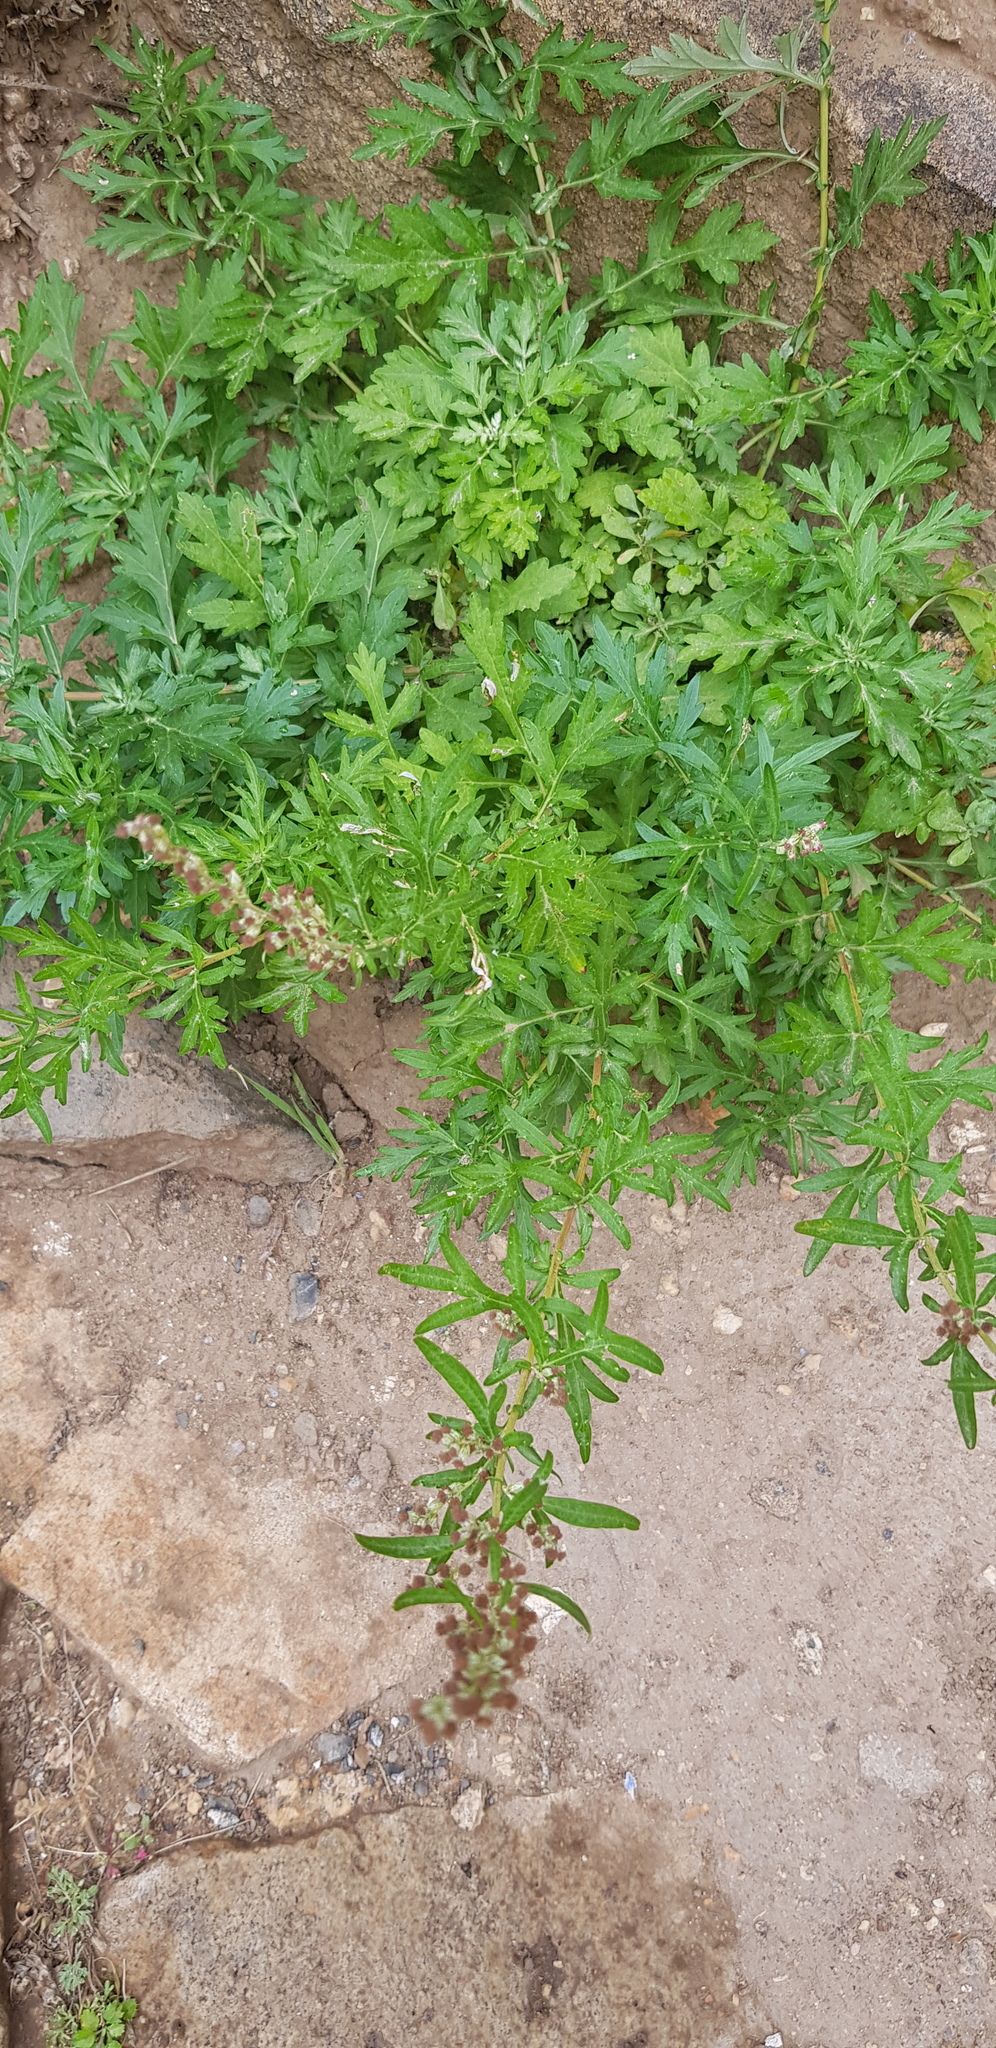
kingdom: Plantae
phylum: Tracheophyta
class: Magnoliopsida
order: Asterales
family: Asteraceae
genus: Artemisia
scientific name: Artemisia vulgaris
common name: Mugwort
